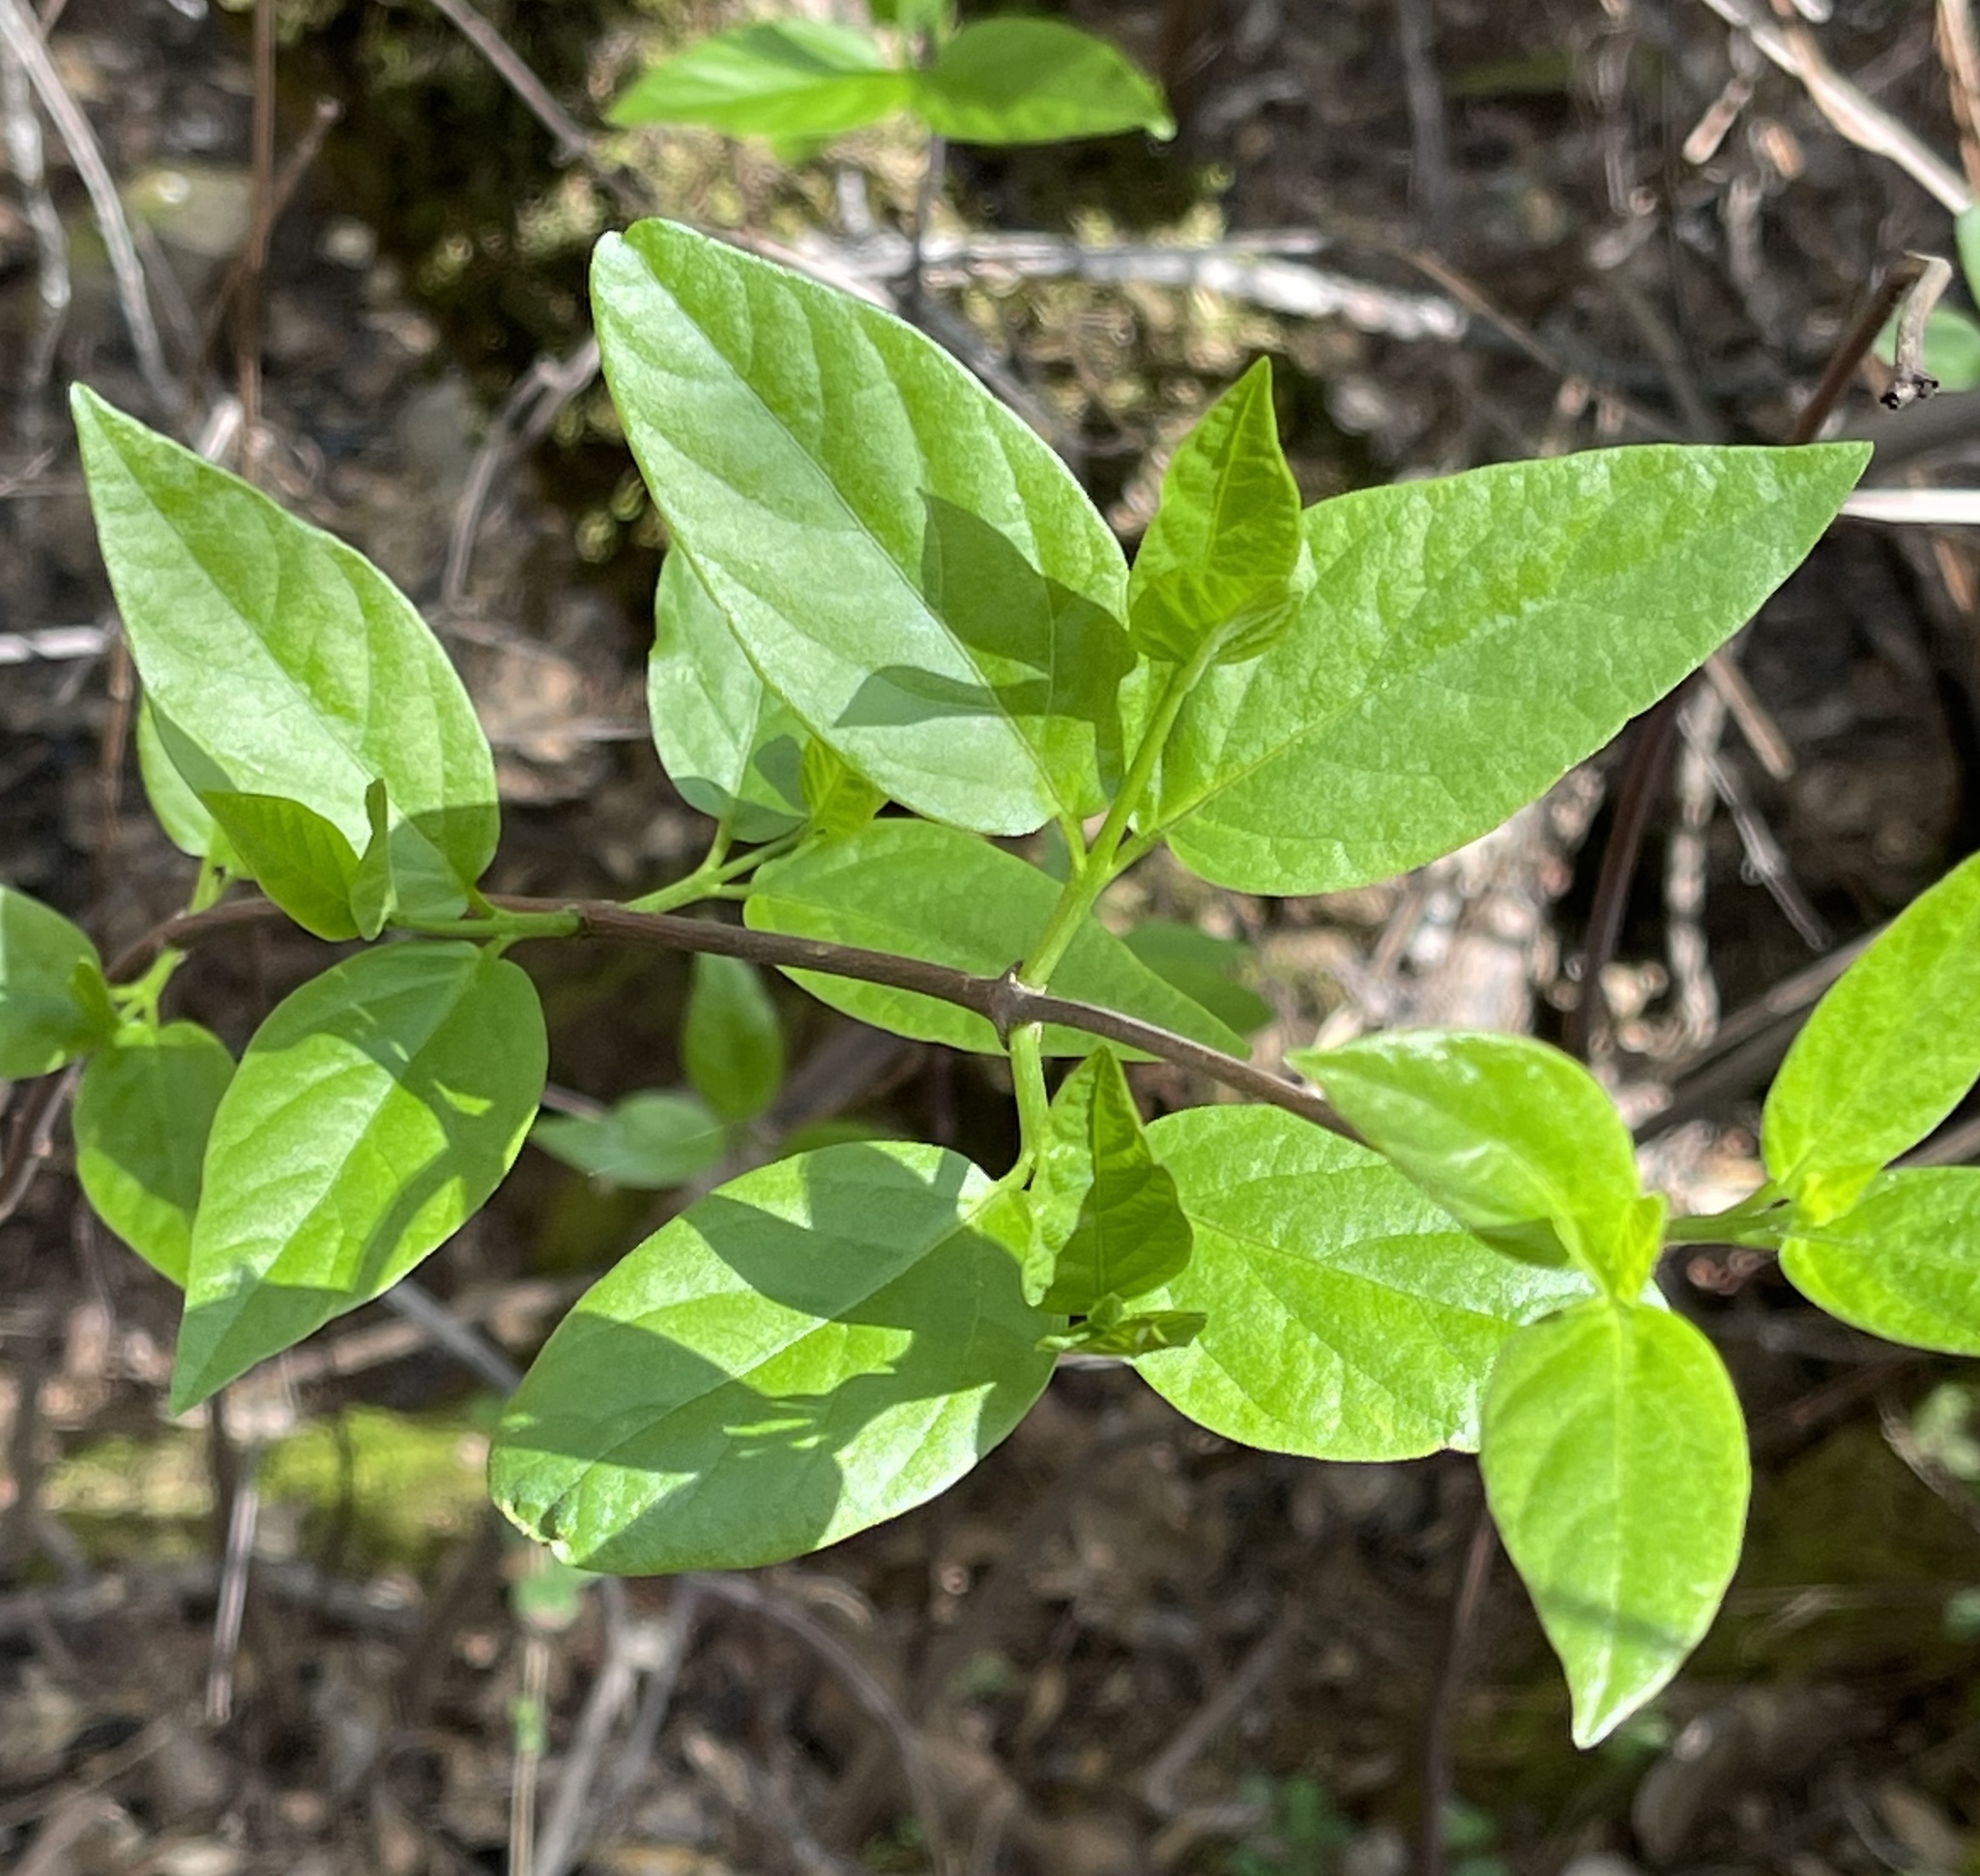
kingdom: Plantae
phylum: Tracheophyta
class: Magnoliopsida
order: Laurales
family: Calycanthaceae
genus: Calycanthus
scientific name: Calycanthus occidentalis
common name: California spicebush
